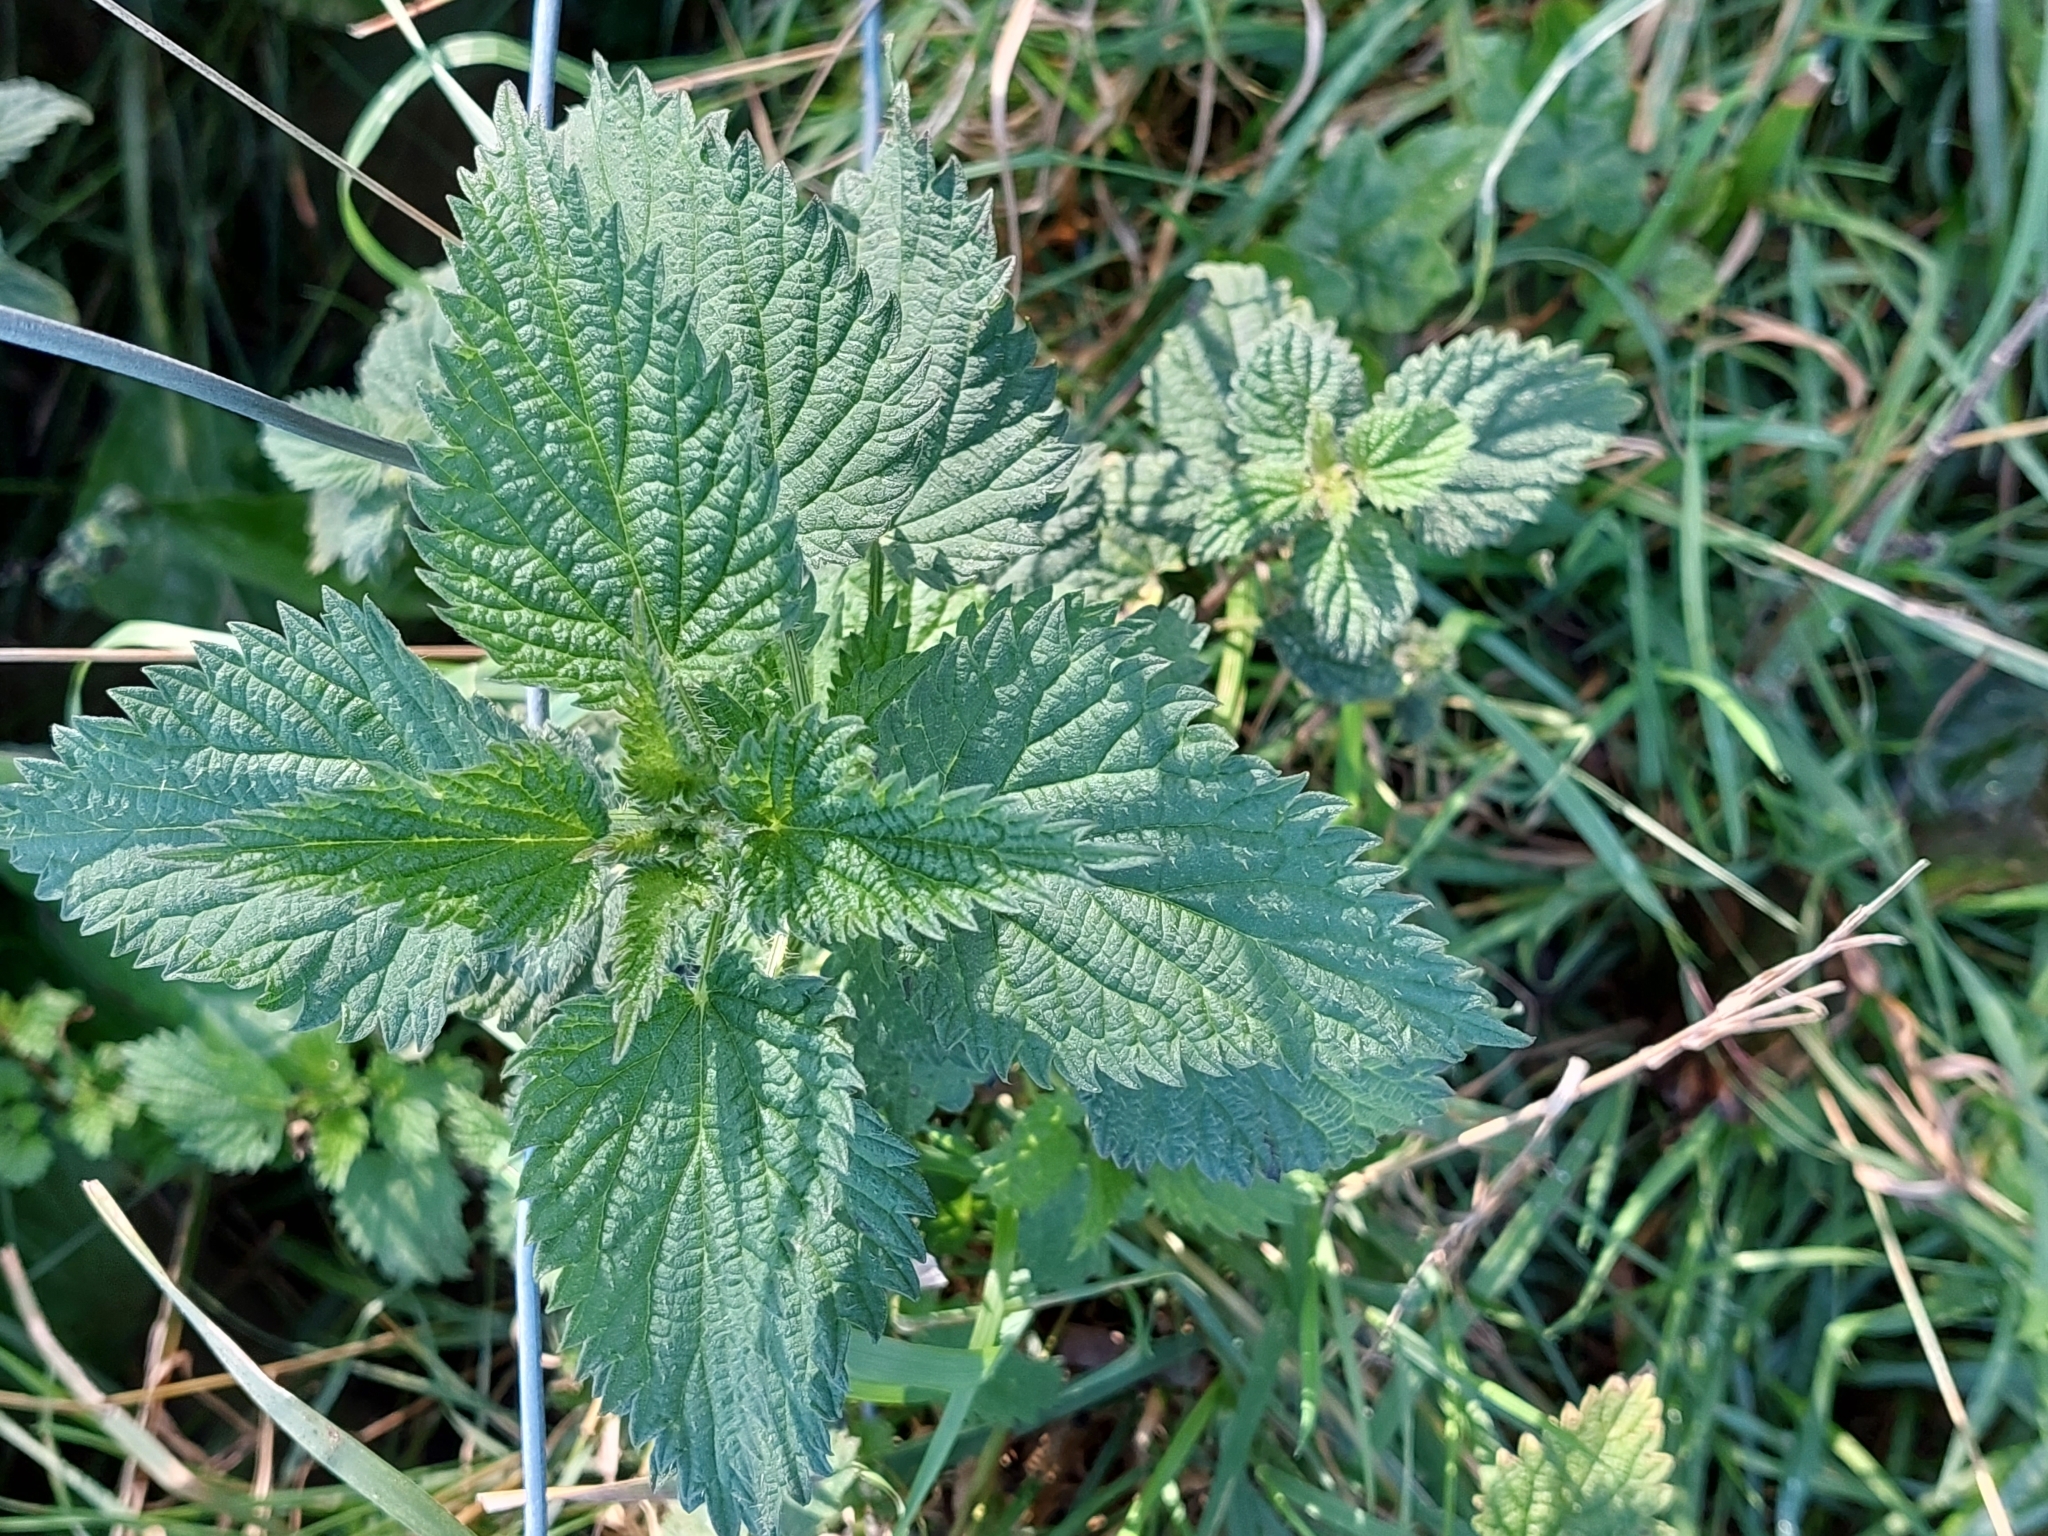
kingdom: Plantae
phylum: Tracheophyta
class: Magnoliopsida
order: Rosales
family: Urticaceae
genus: Urtica
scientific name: Urtica dioica
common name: Common nettle
